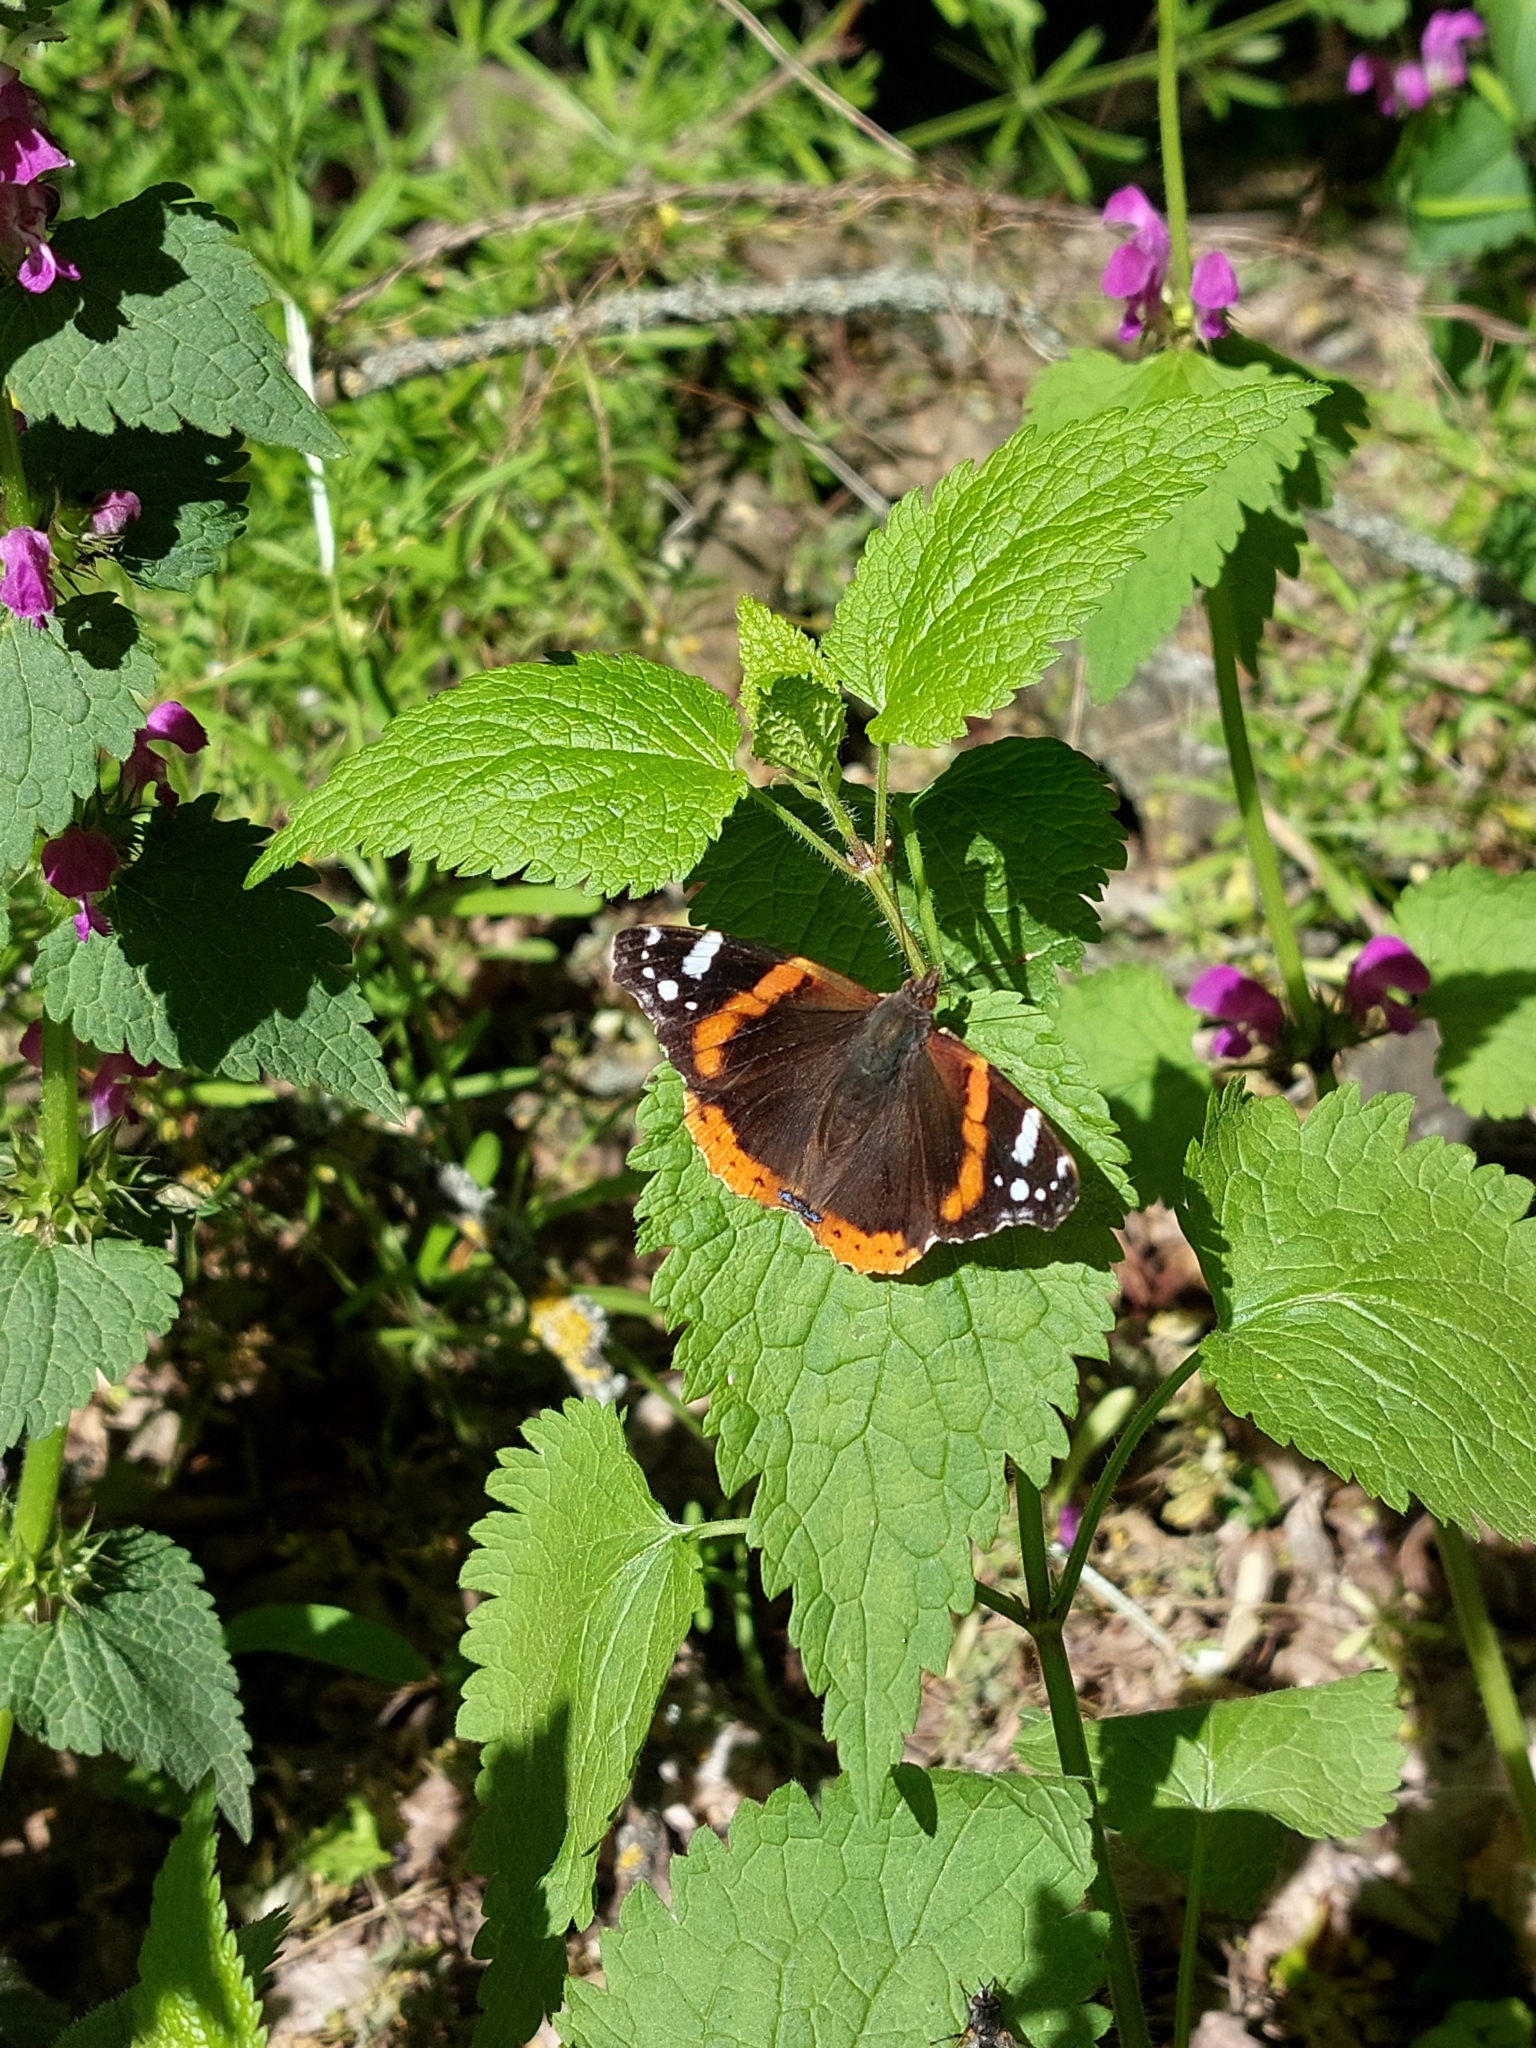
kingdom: Animalia
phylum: Arthropoda
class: Insecta
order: Lepidoptera
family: Nymphalidae
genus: Vanessa
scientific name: Vanessa atalanta
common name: Red admiral
